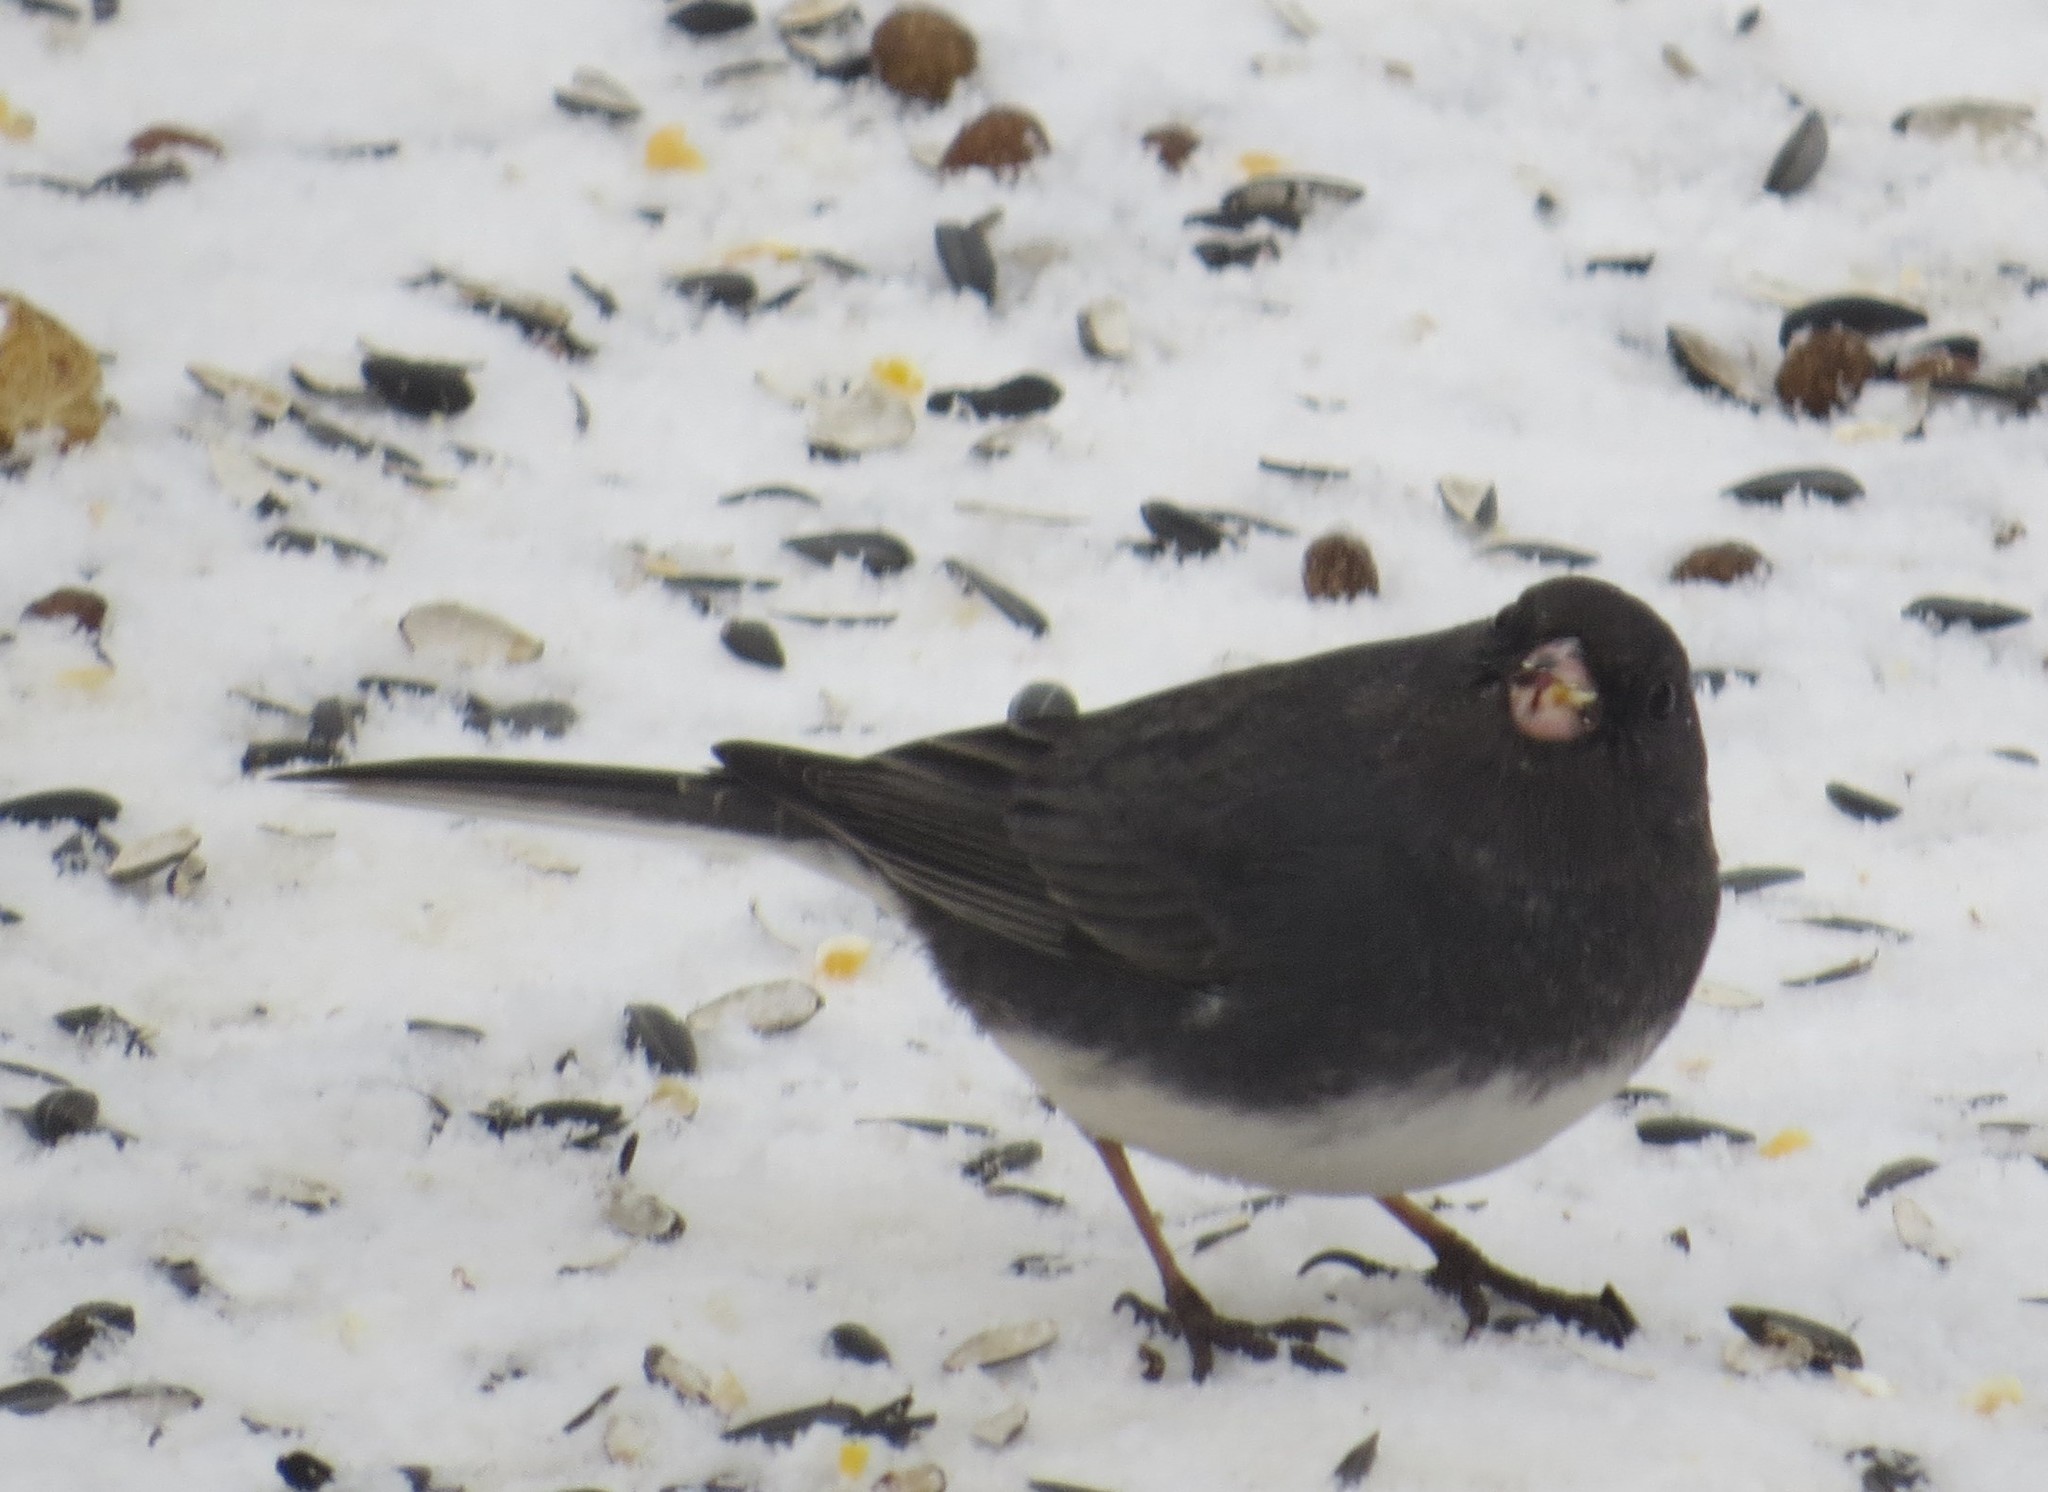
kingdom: Animalia
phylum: Chordata
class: Aves
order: Passeriformes
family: Passerellidae
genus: Junco
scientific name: Junco hyemalis
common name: Dark-eyed junco
